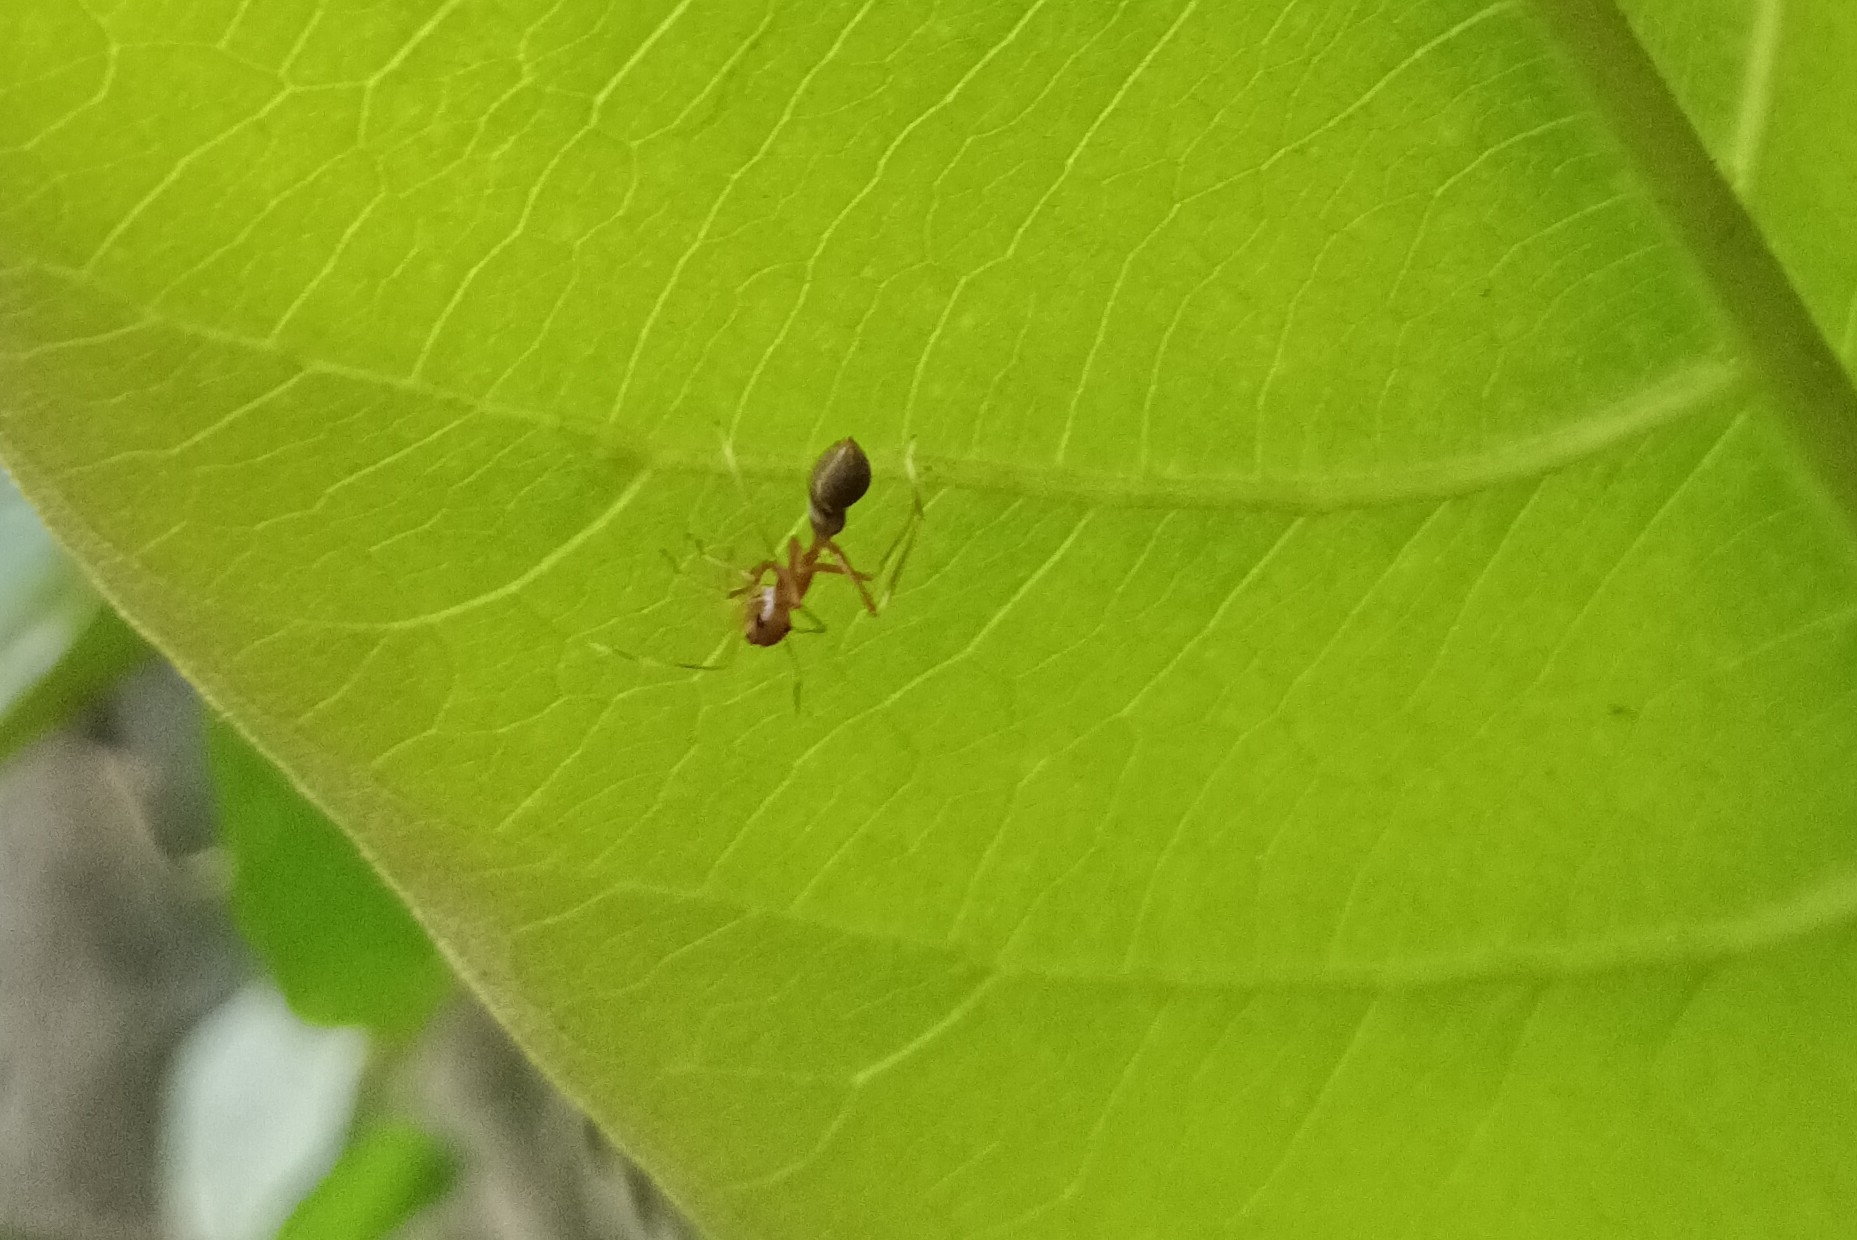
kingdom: Animalia
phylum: Arthropoda
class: Arachnida
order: Araneae
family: Salticidae
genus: Myrmaplata
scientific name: Myrmaplata plataleoides
